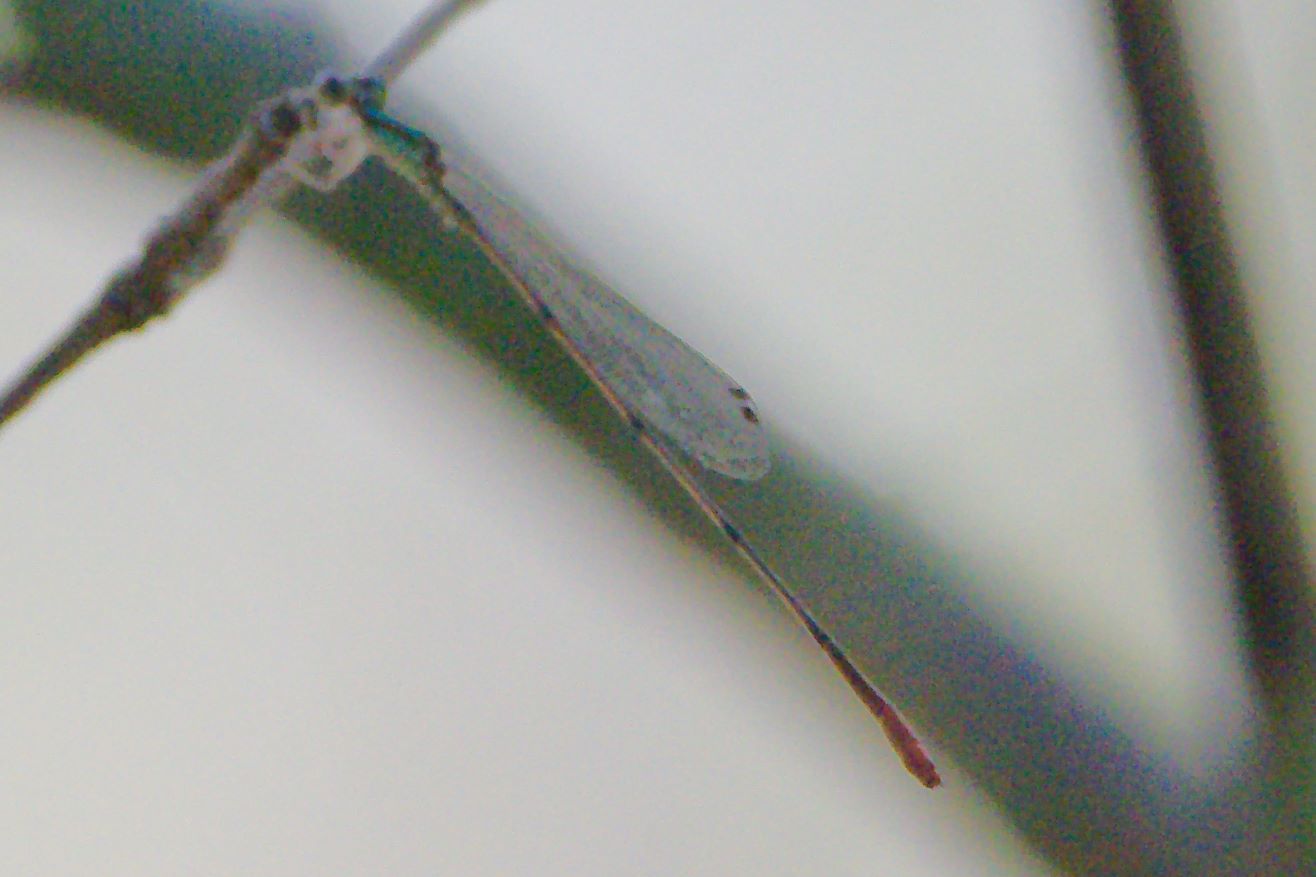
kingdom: Animalia
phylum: Arthropoda
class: Insecta
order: Odonata
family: Coenagrionidae
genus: Leptobasis
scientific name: Leptobasis lucifer
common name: Lucifer swampdamsel
